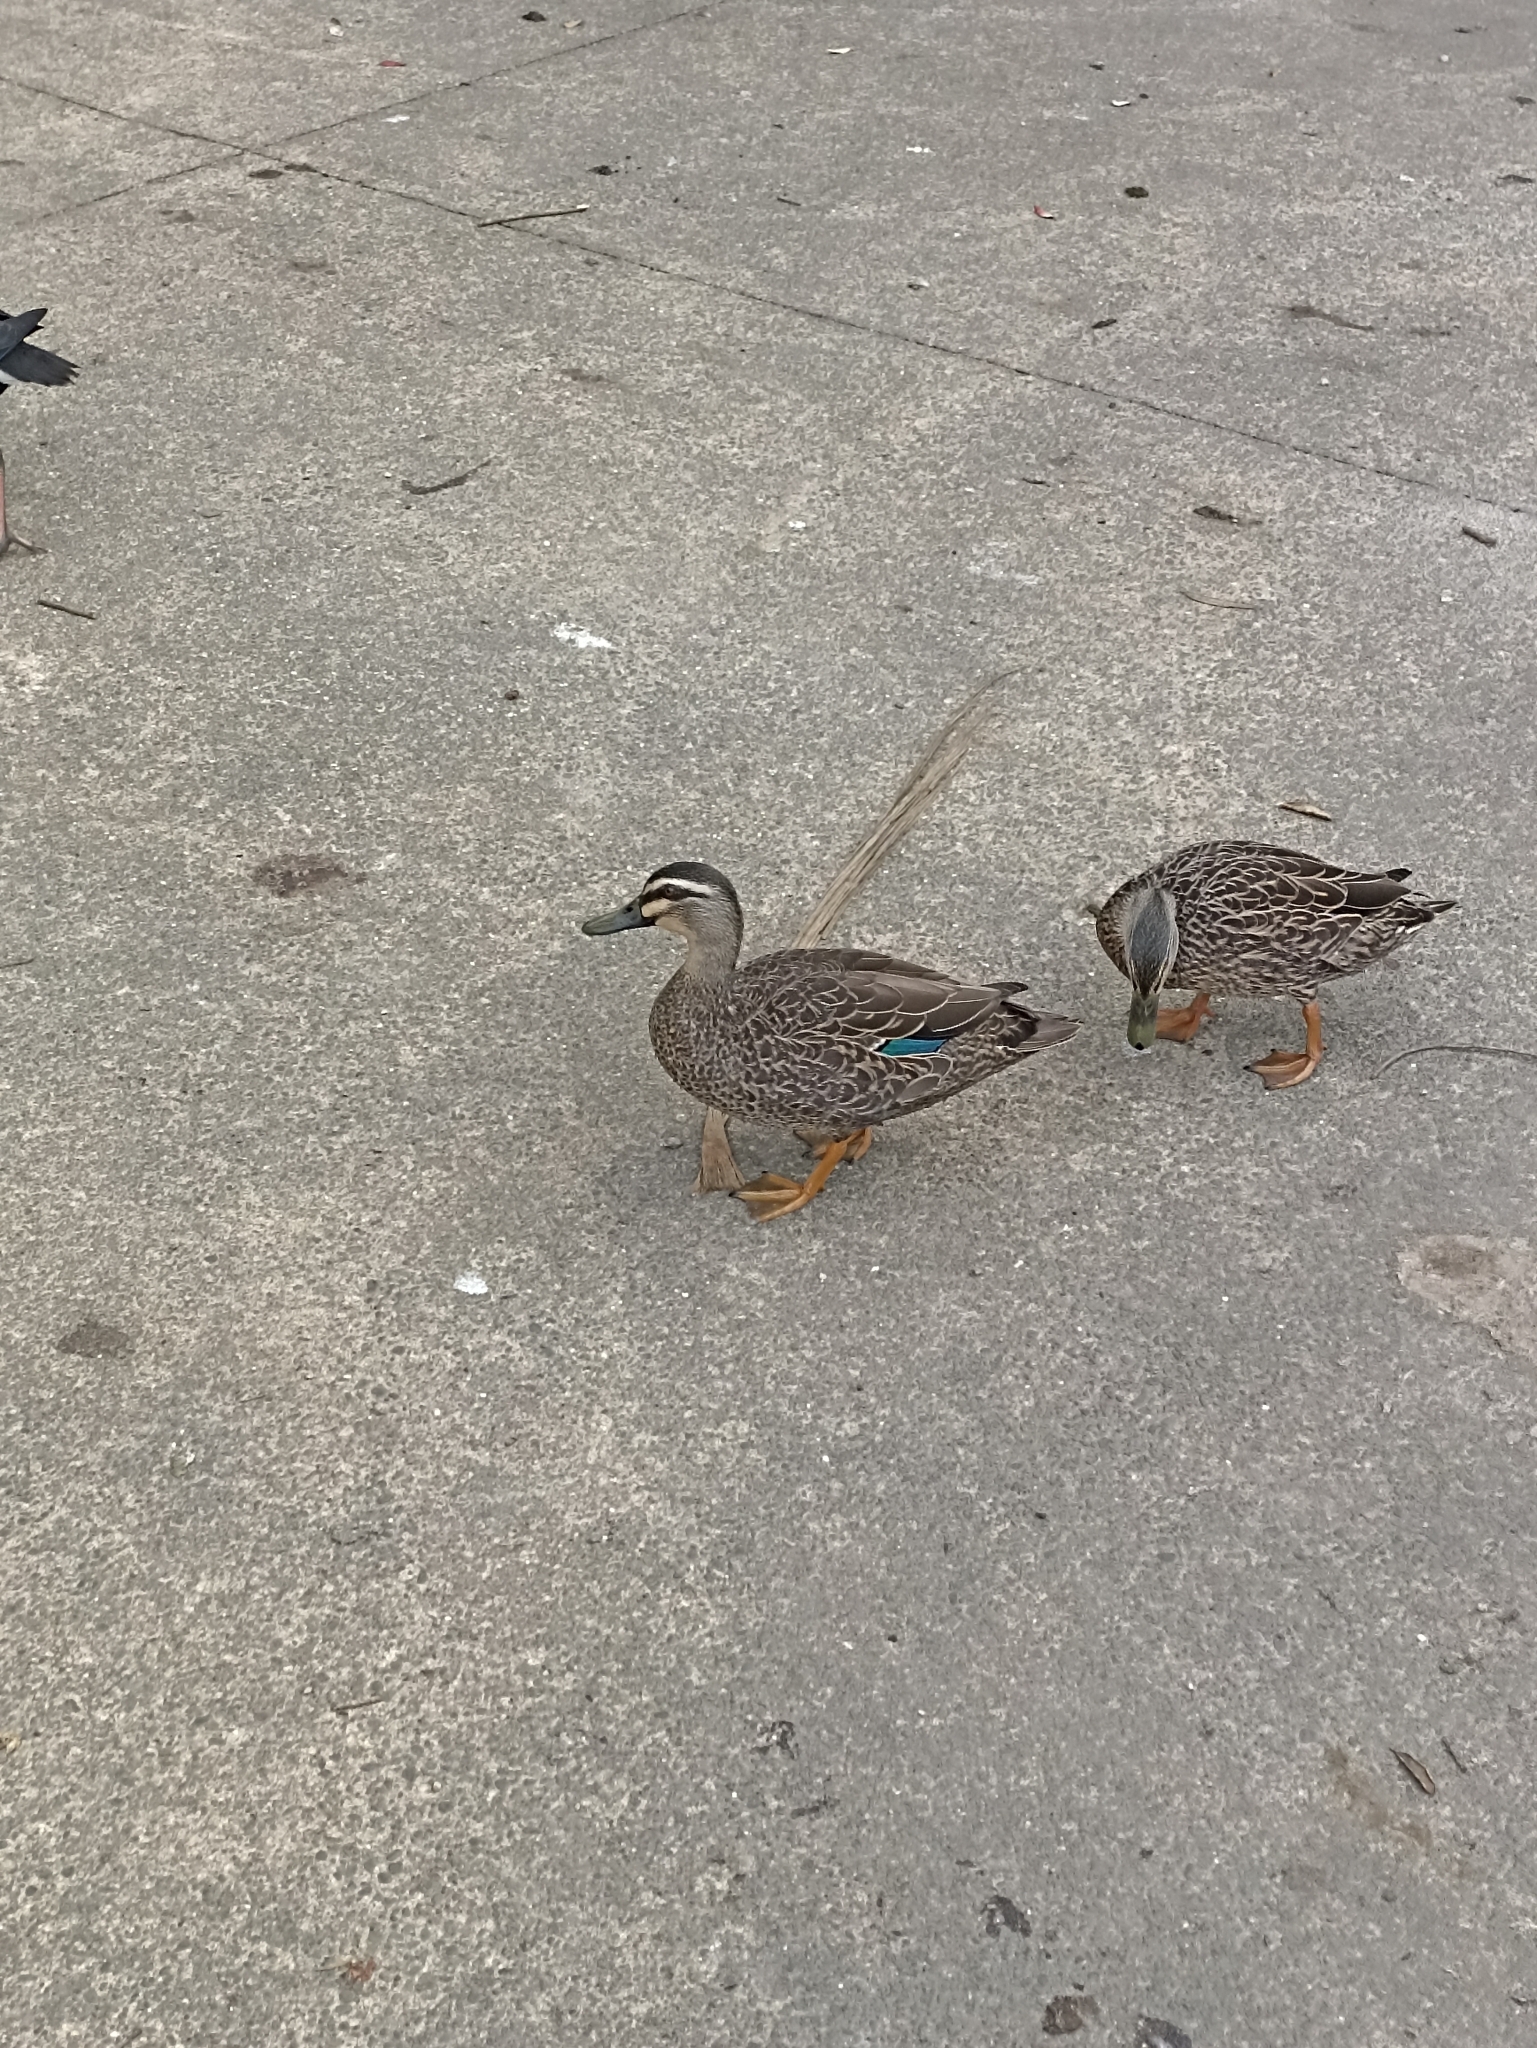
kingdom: Animalia
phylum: Chordata
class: Aves
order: Anseriformes
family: Anatidae
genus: Anas
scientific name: Anas
